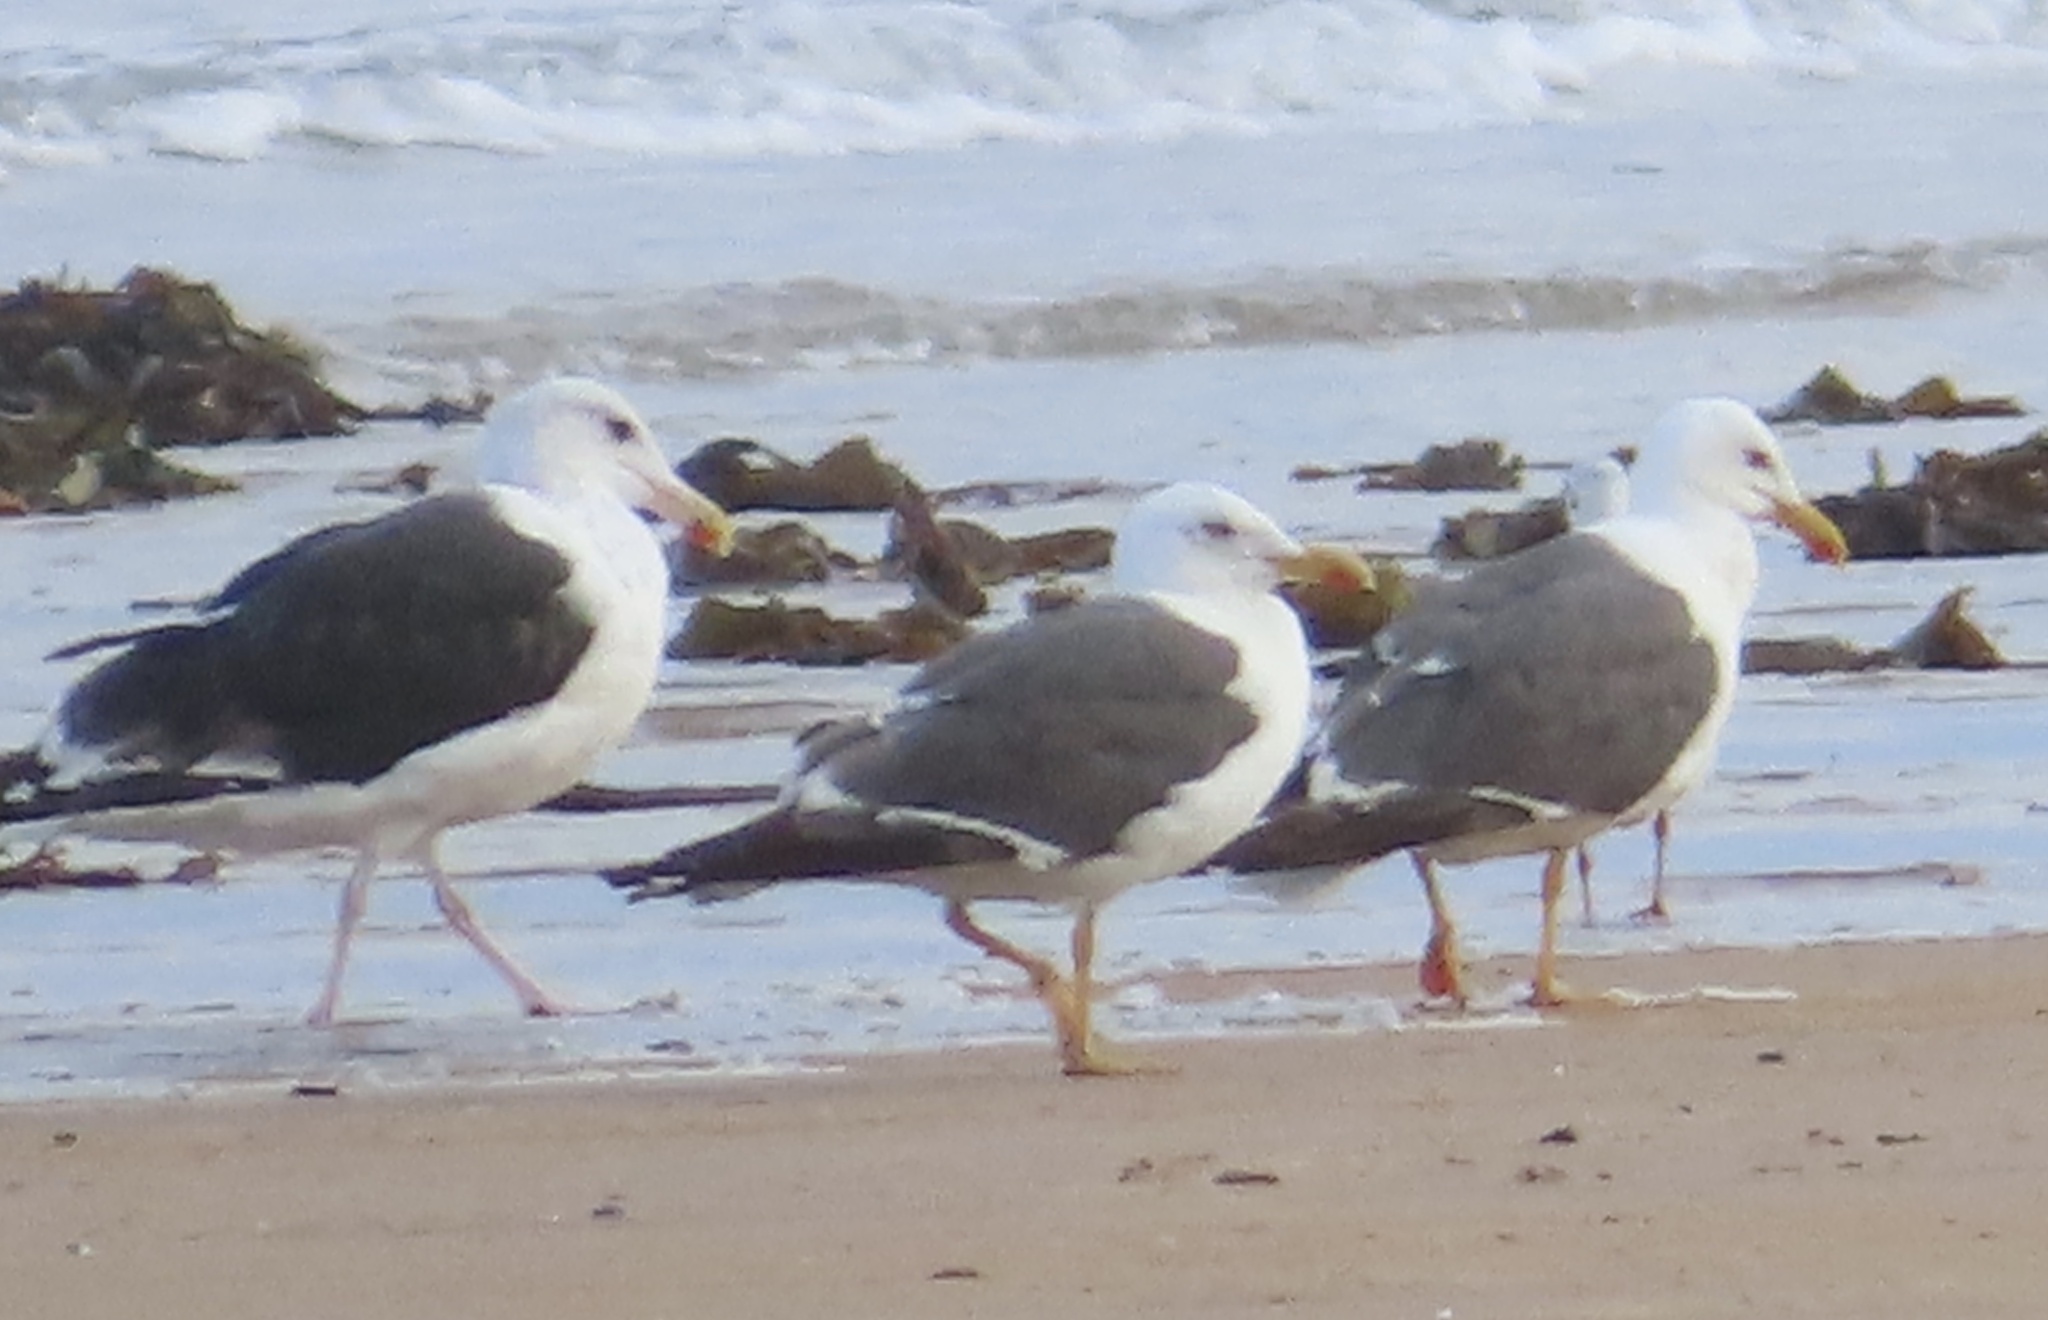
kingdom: Animalia
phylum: Chordata
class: Aves
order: Charadriiformes
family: Laridae
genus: Larus
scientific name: Larus fuscus
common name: Lesser black-backed gull
